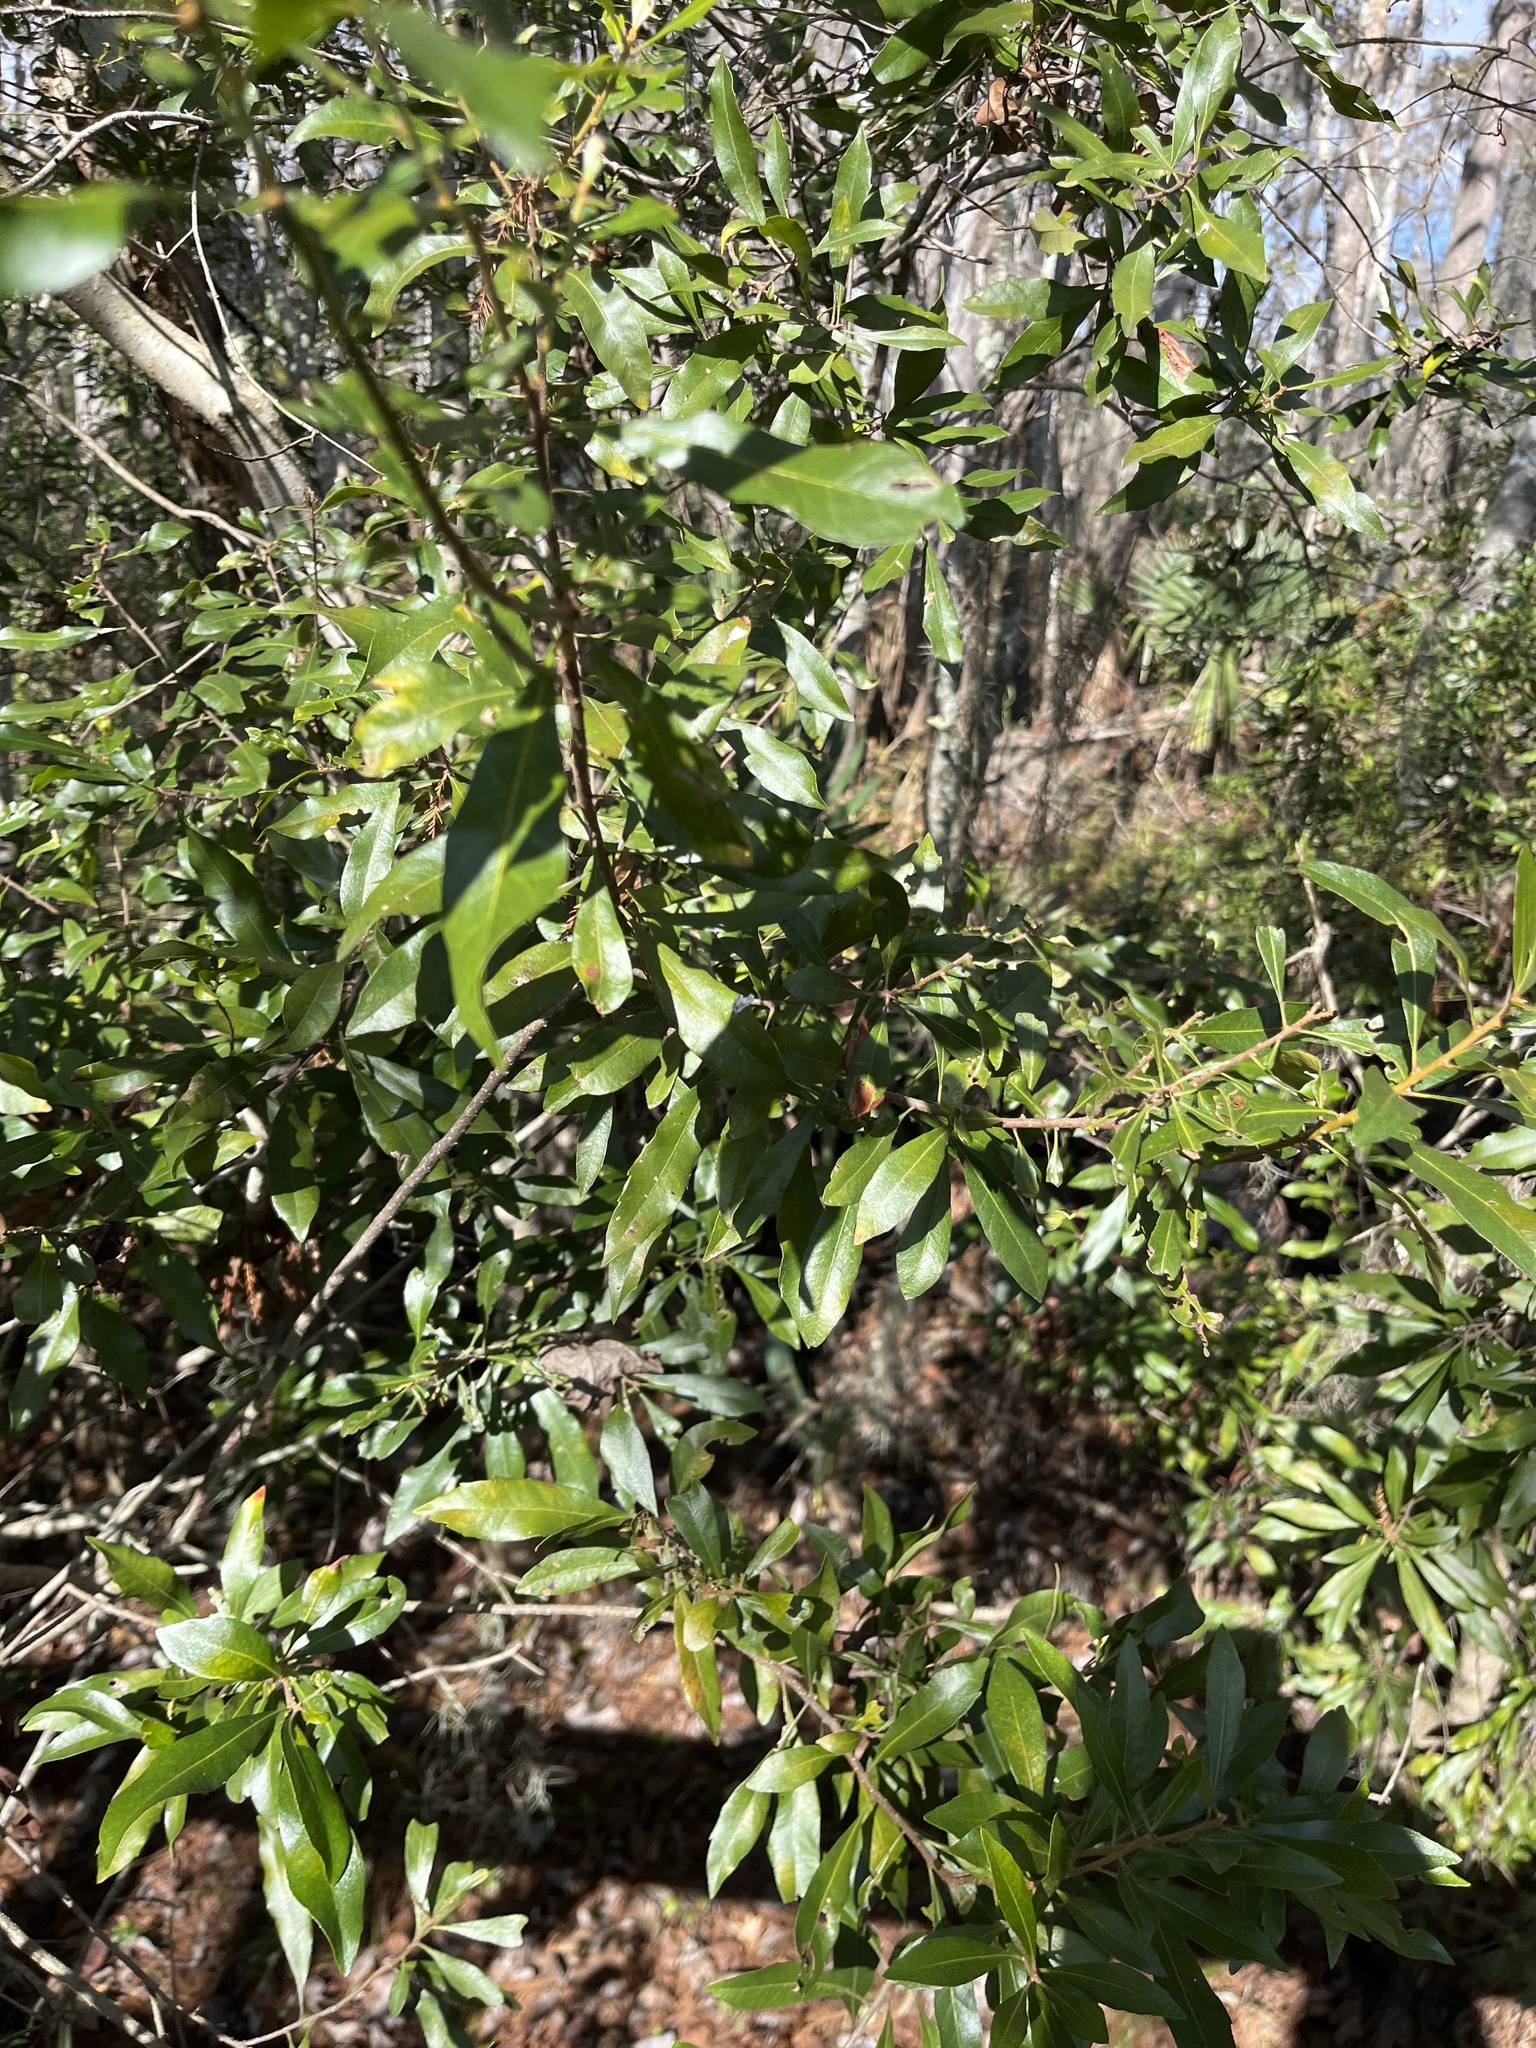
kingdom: Plantae
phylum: Tracheophyta
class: Magnoliopsida
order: Fagales
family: Myricaceae
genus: Morella
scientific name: Morella cerifera
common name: Wax myrtle
